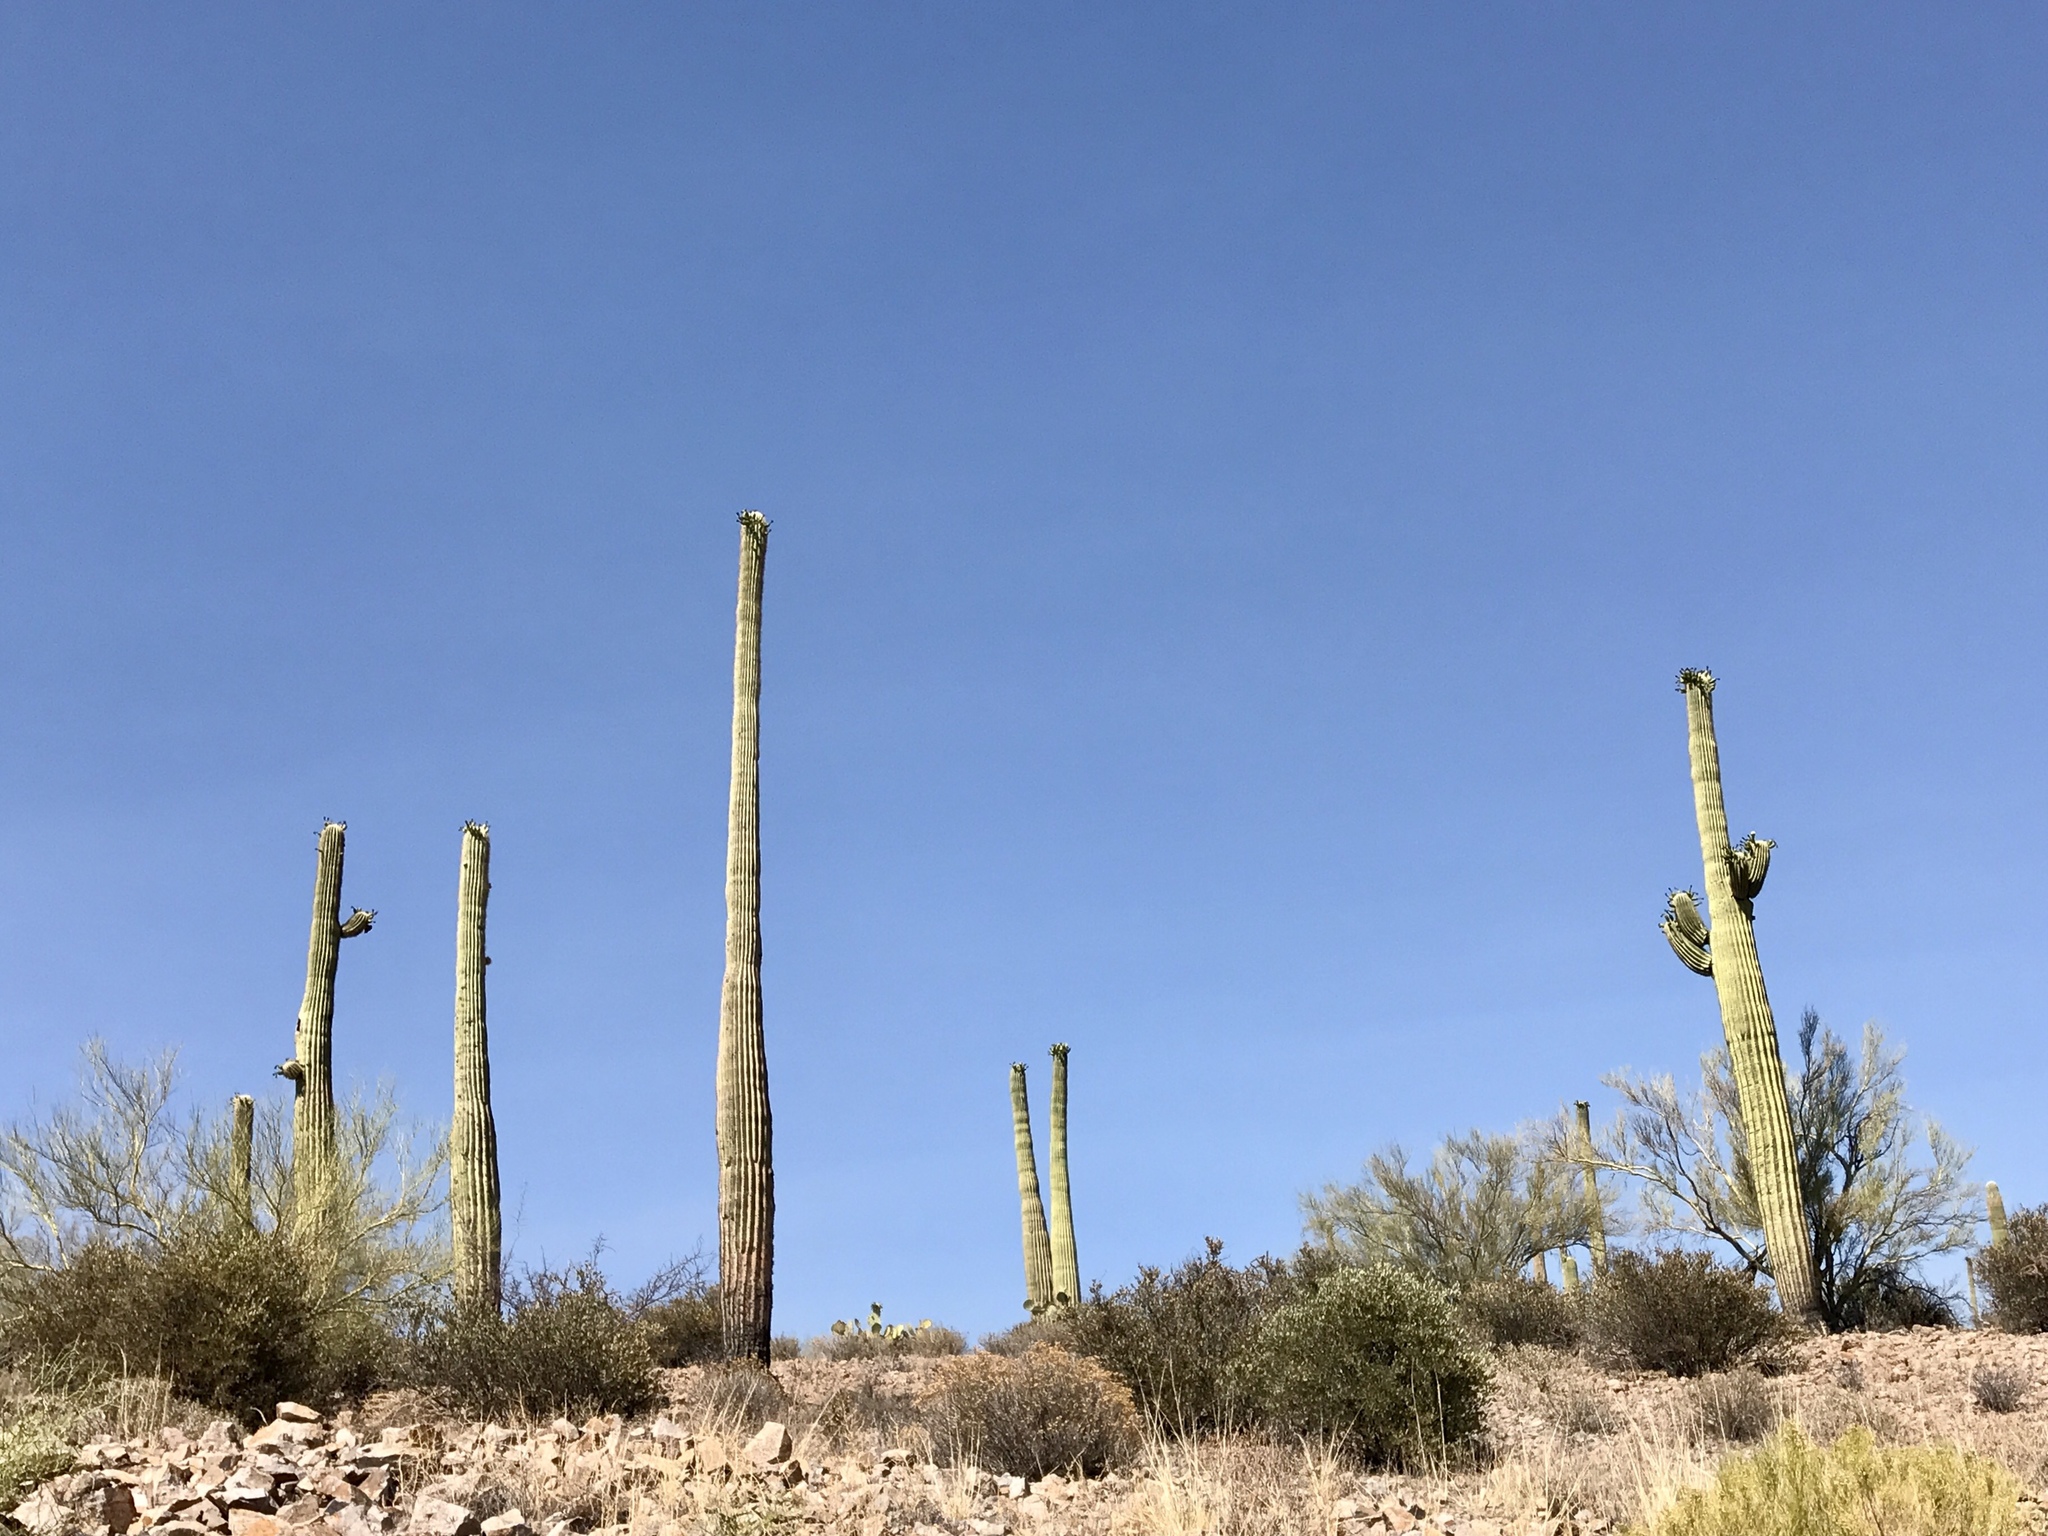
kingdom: Plantae
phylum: Tracheophyta
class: Magnoliopsida
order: Caryophyllales
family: Cactaceae
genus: Carnegiea
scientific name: Carnegiea gigantea
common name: Saguaro
